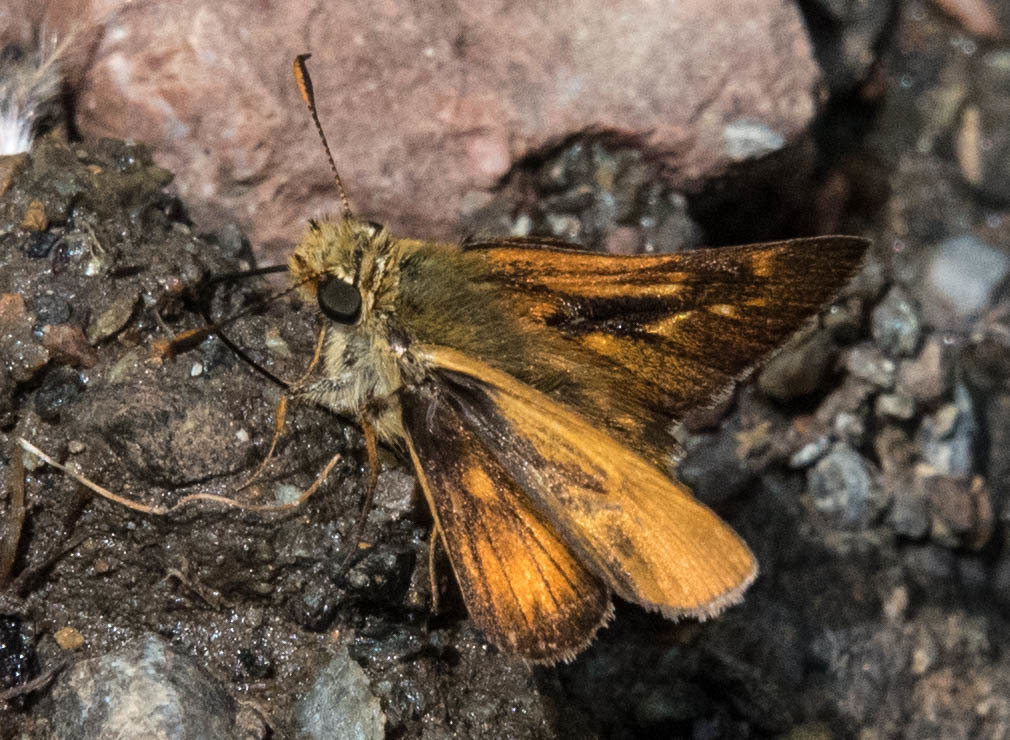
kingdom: Animalia
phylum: Arthropoda
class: Insecta
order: Lepidoptera
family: Hesperiidae
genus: Atalopedes
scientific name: Atalopedes campestris
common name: Sachem
